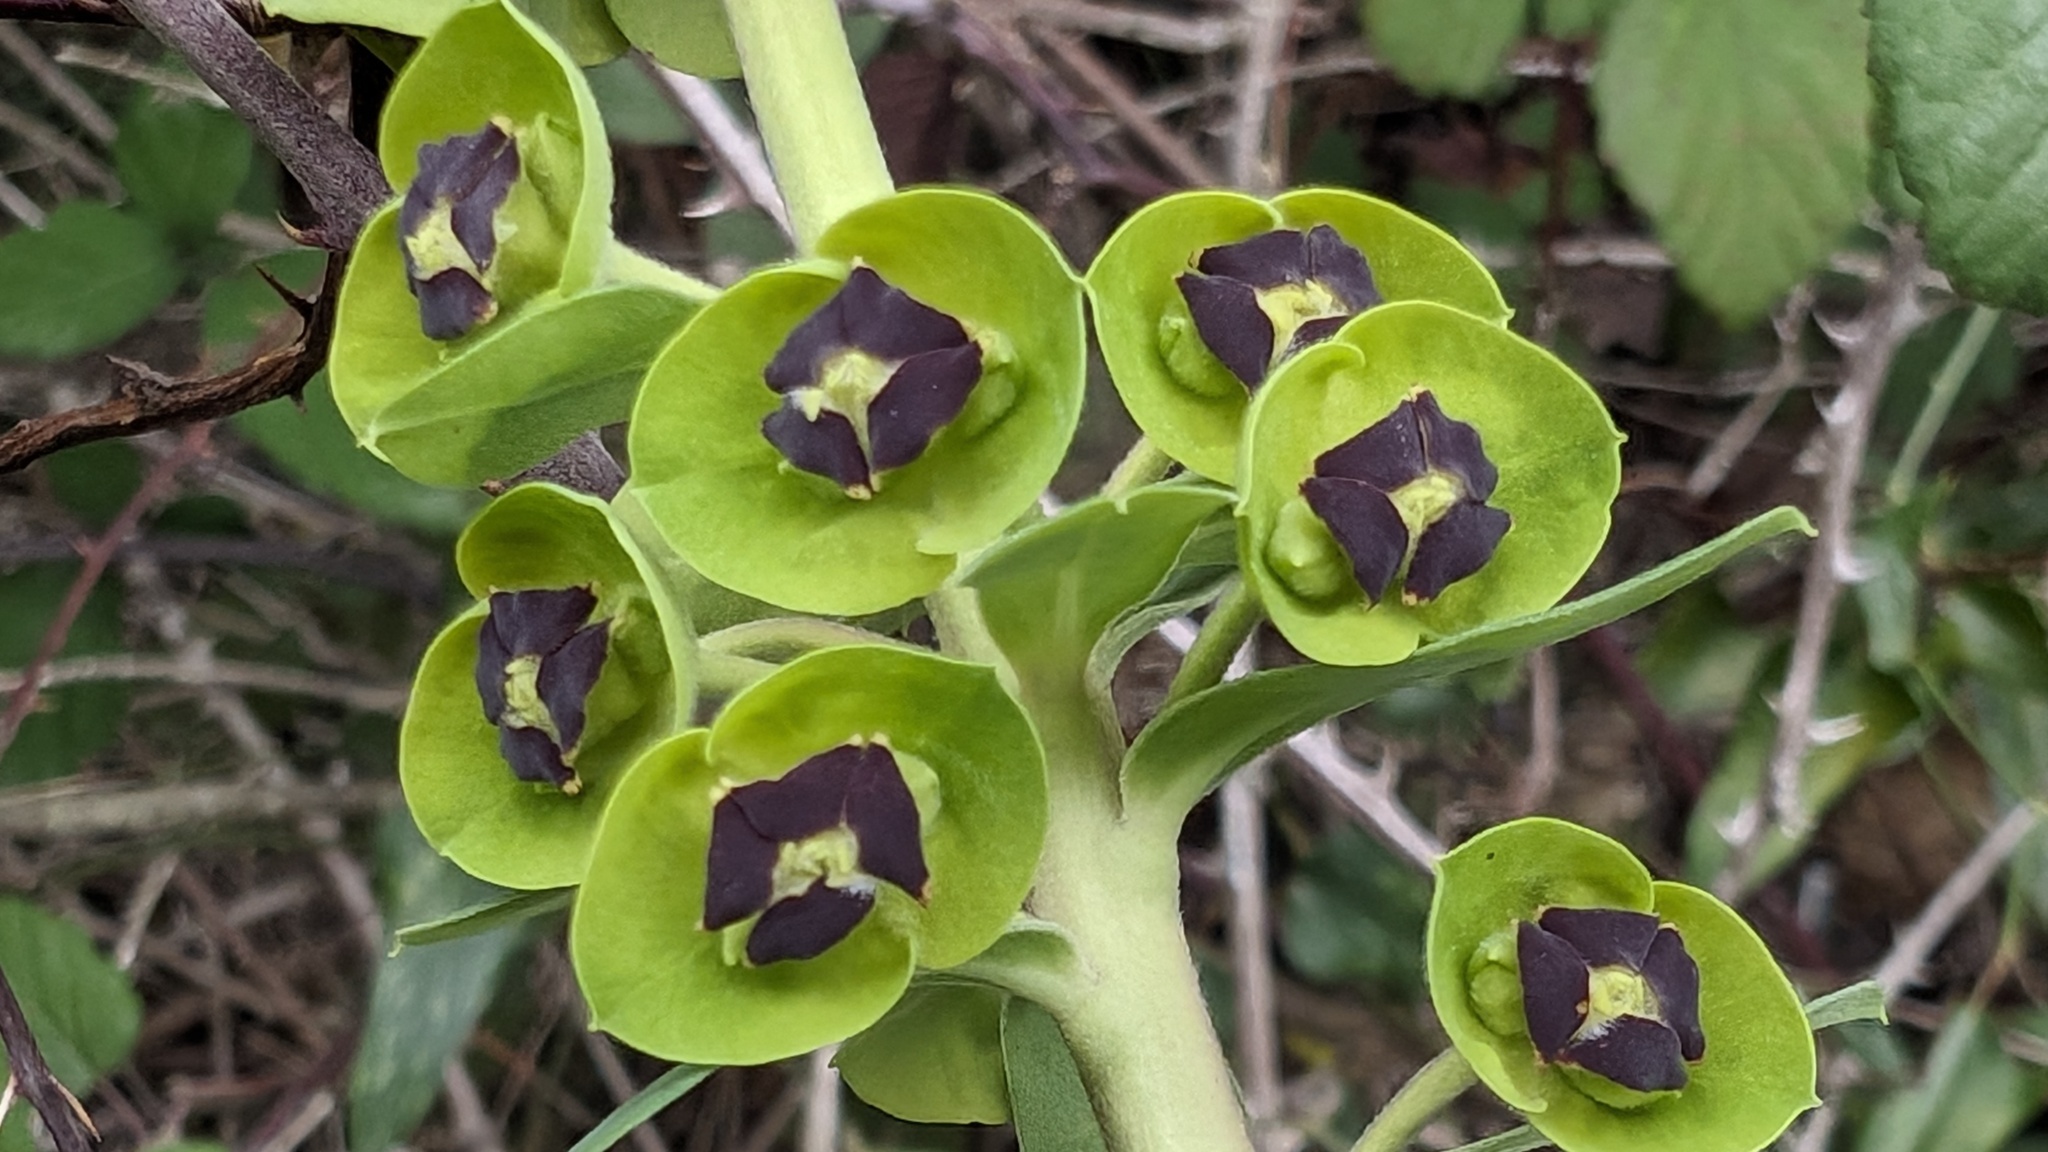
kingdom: Plantae
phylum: Tracheophyta
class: Magnoliopsida
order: Malpighiales
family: Euphorbiaceae
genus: Euphorbia
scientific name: Euphorbia characias
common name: Mediterranean spurge
